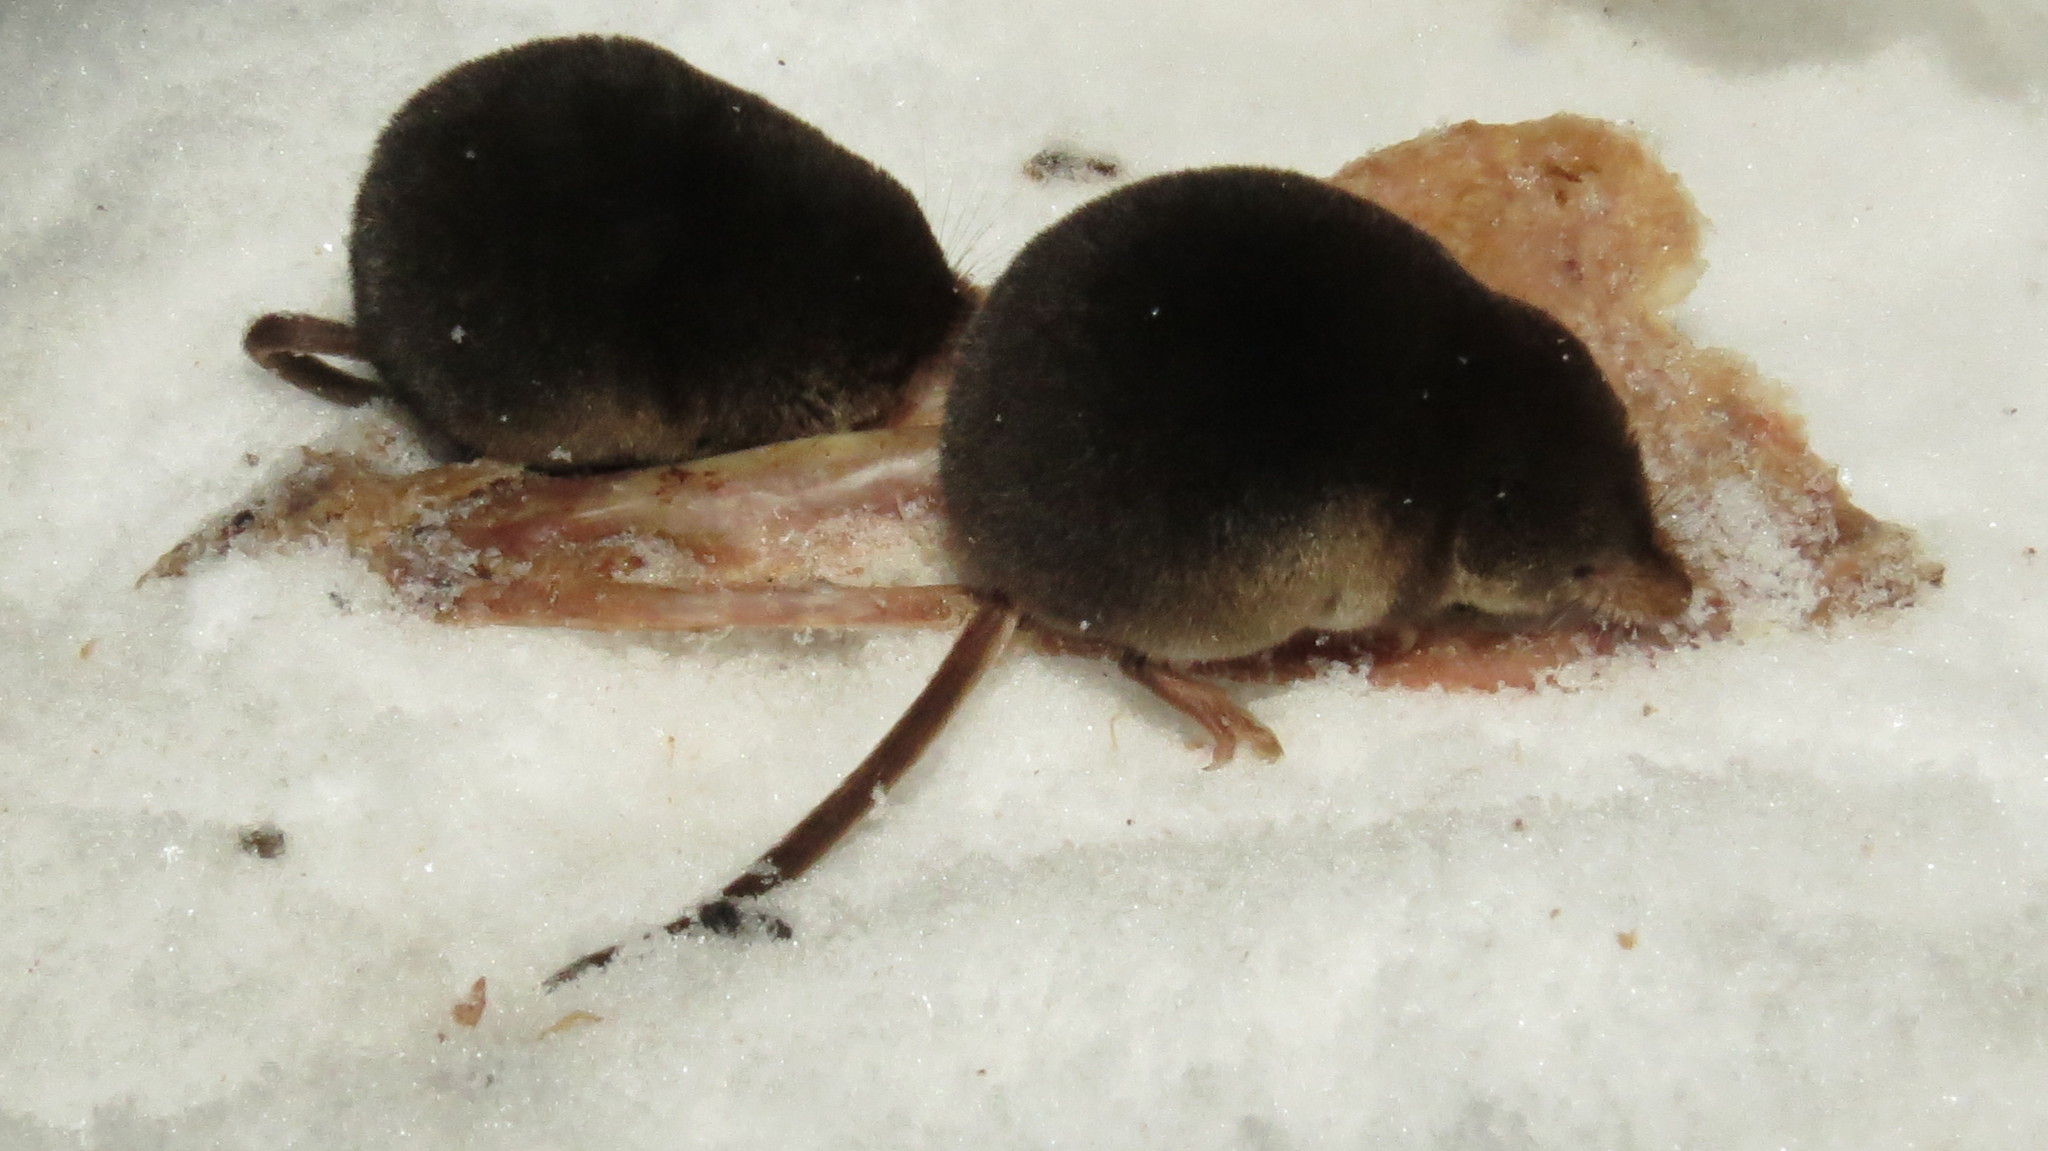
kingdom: Animalia
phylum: Chordata
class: Mammalia
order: Soricomorpha
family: Soricidae
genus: Sorex
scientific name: Sorex araneus
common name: Common shrew
